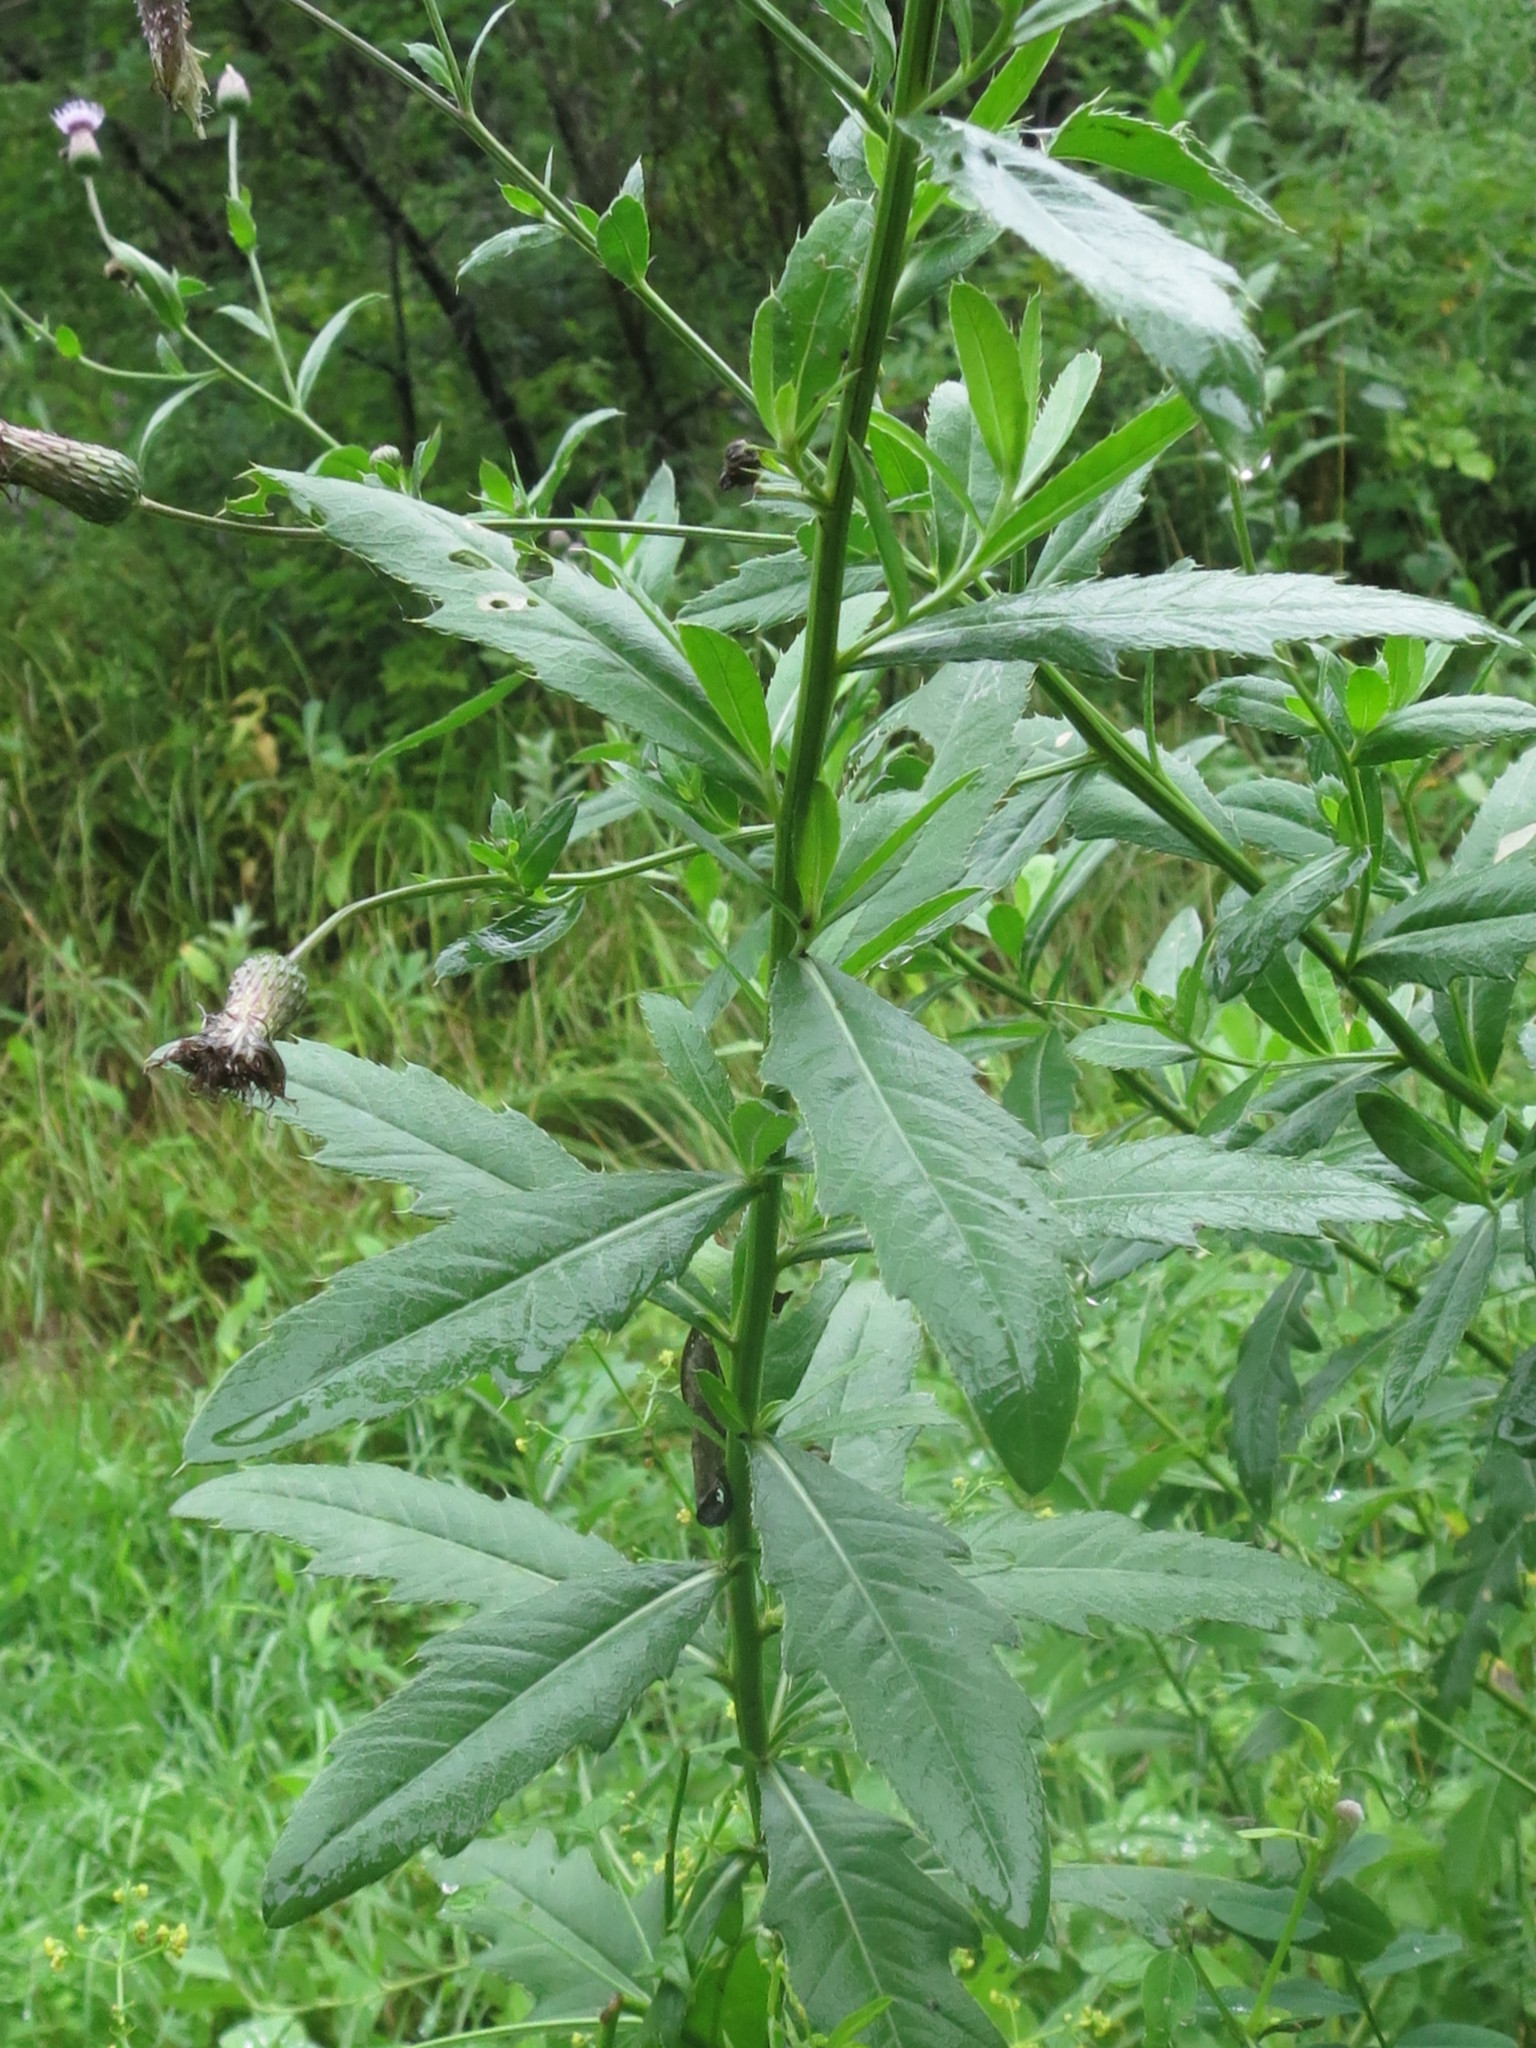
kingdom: Plantae
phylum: Tracheophyta
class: Magnoliopsida
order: Asterales
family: Asteraceae
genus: Cirsium
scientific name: Cirsium arvense
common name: Creeping thistle
